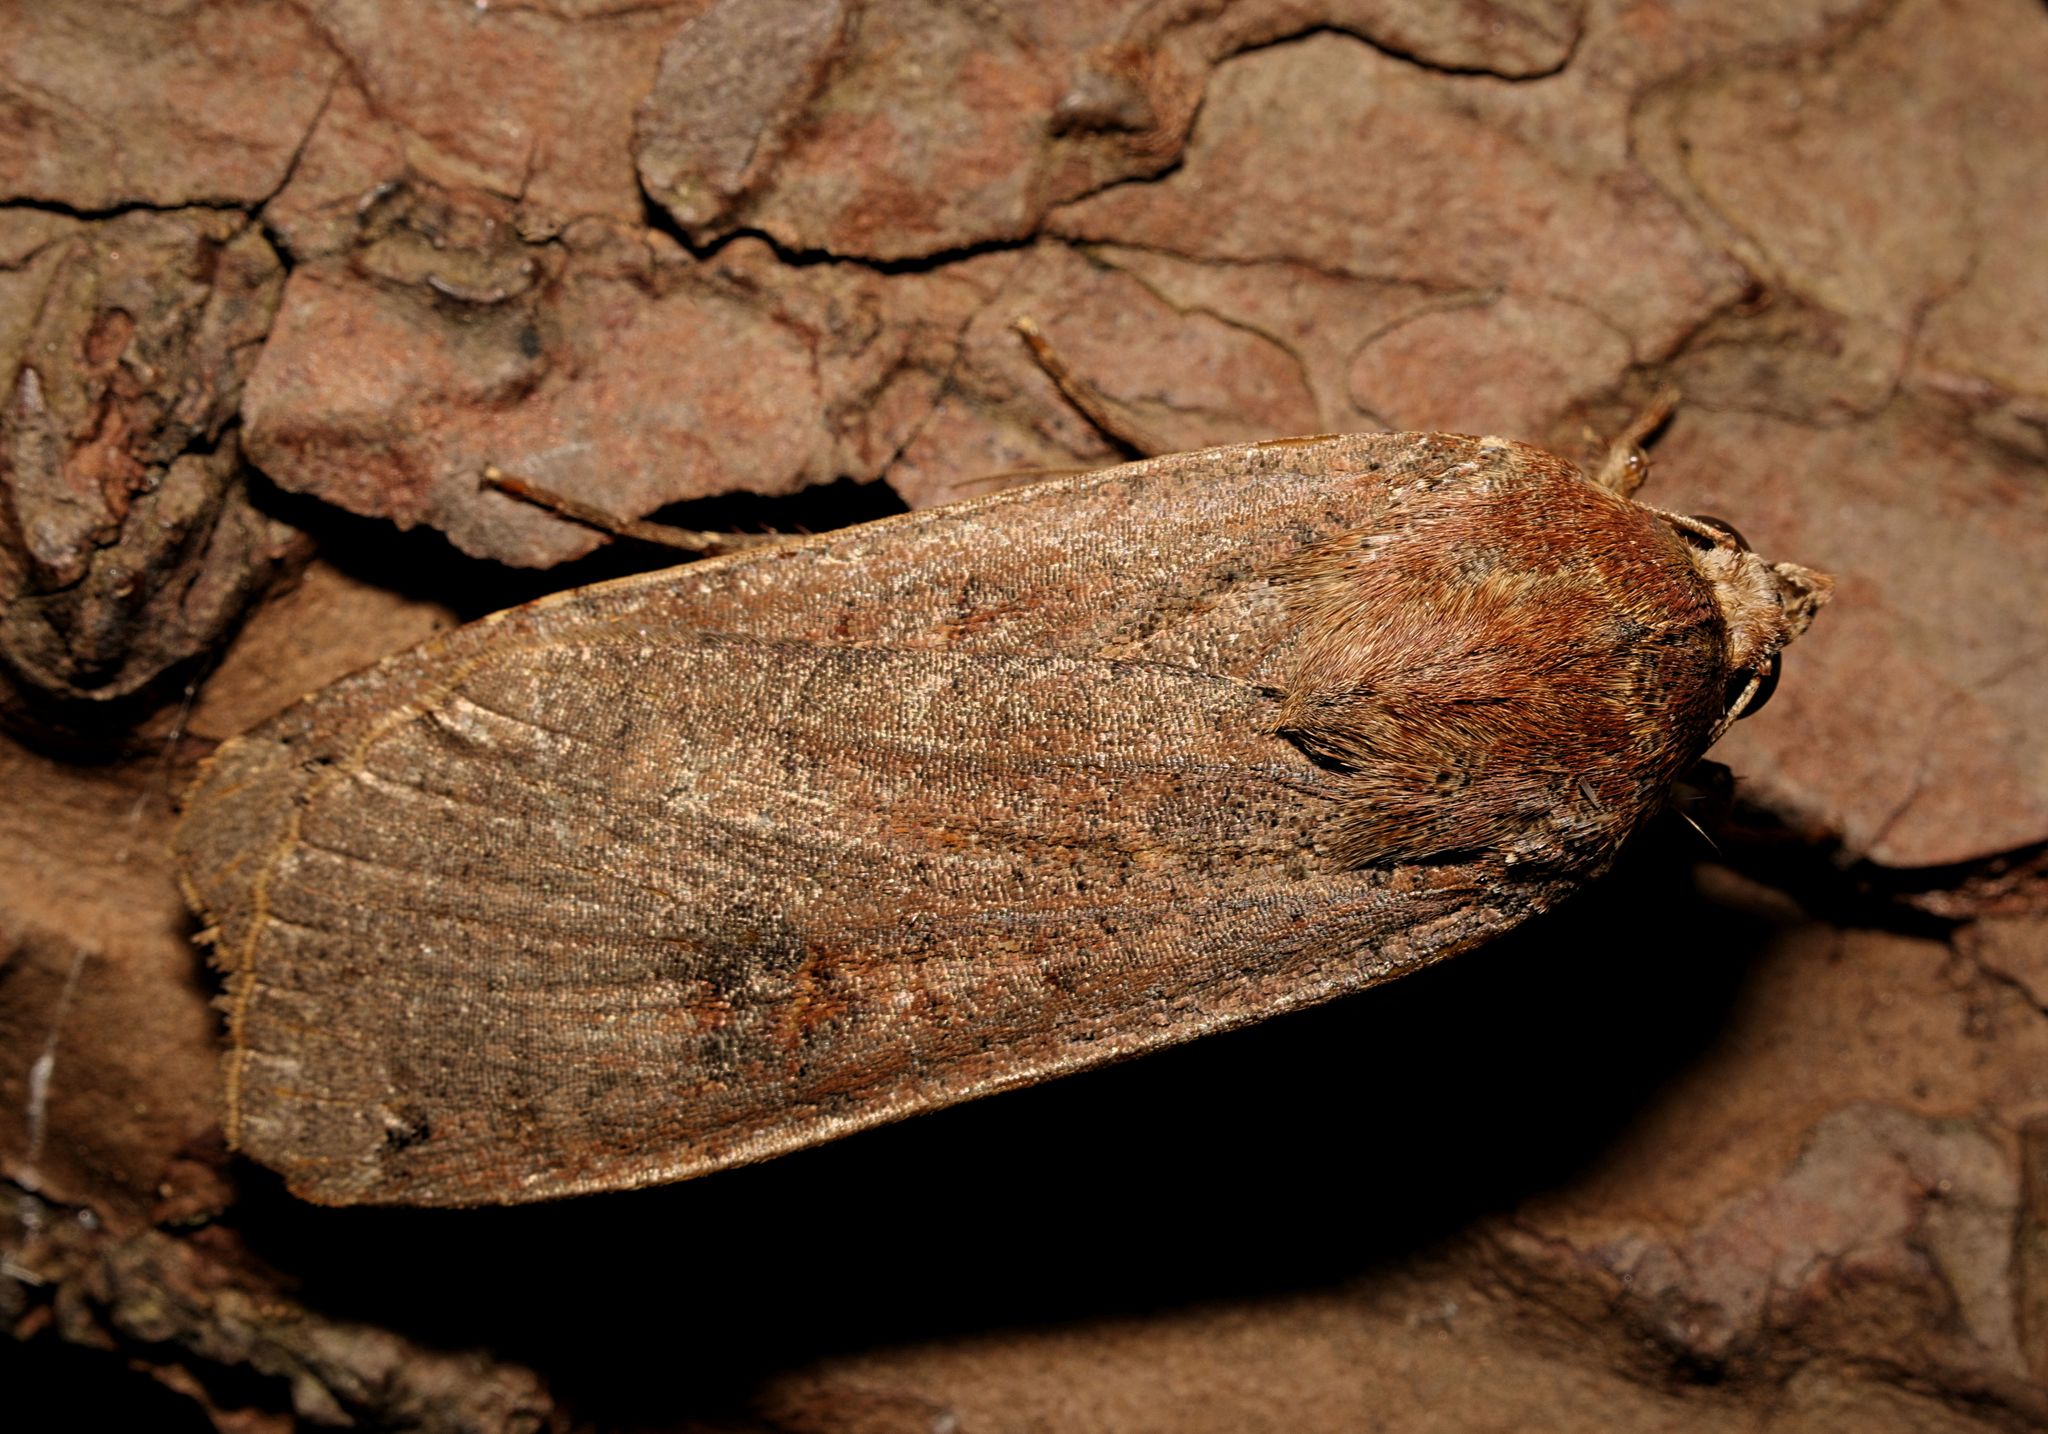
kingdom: Animalia
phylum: Arthropoda
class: Insecta
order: Lepidoptera
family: Noctuidae
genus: Noctua
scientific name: Noctua pronuba
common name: Large yellow underwing
